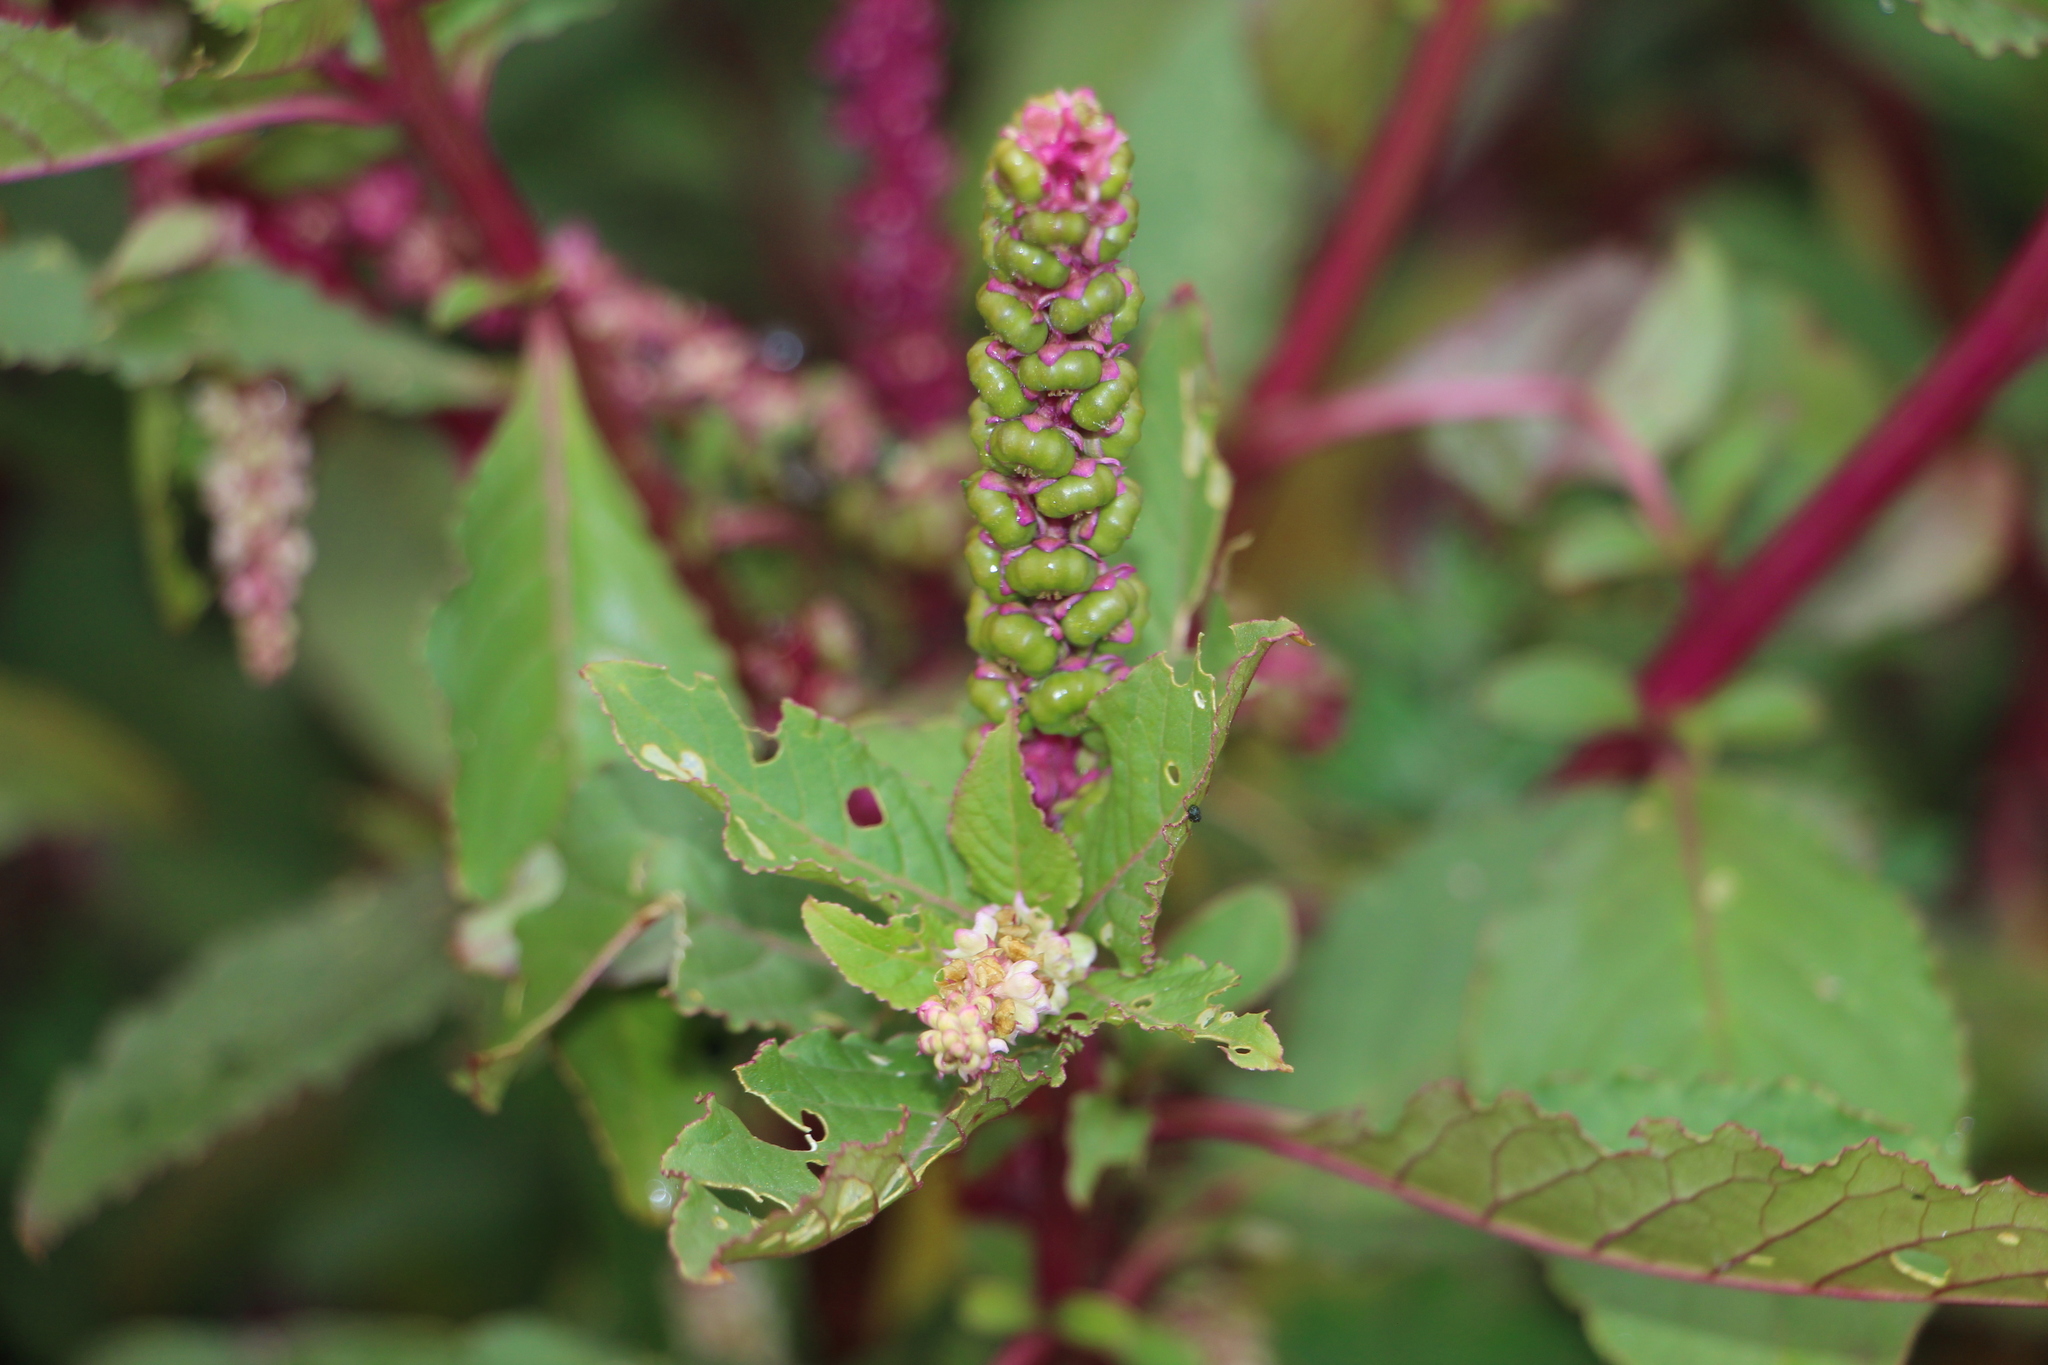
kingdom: Plantae
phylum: Tracheophyta
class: Magnoliopsida
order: Caryophyllales
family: Phytolaccaceae
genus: Phytolacca
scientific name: Phytolacca icosandra
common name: Button pokeweed
